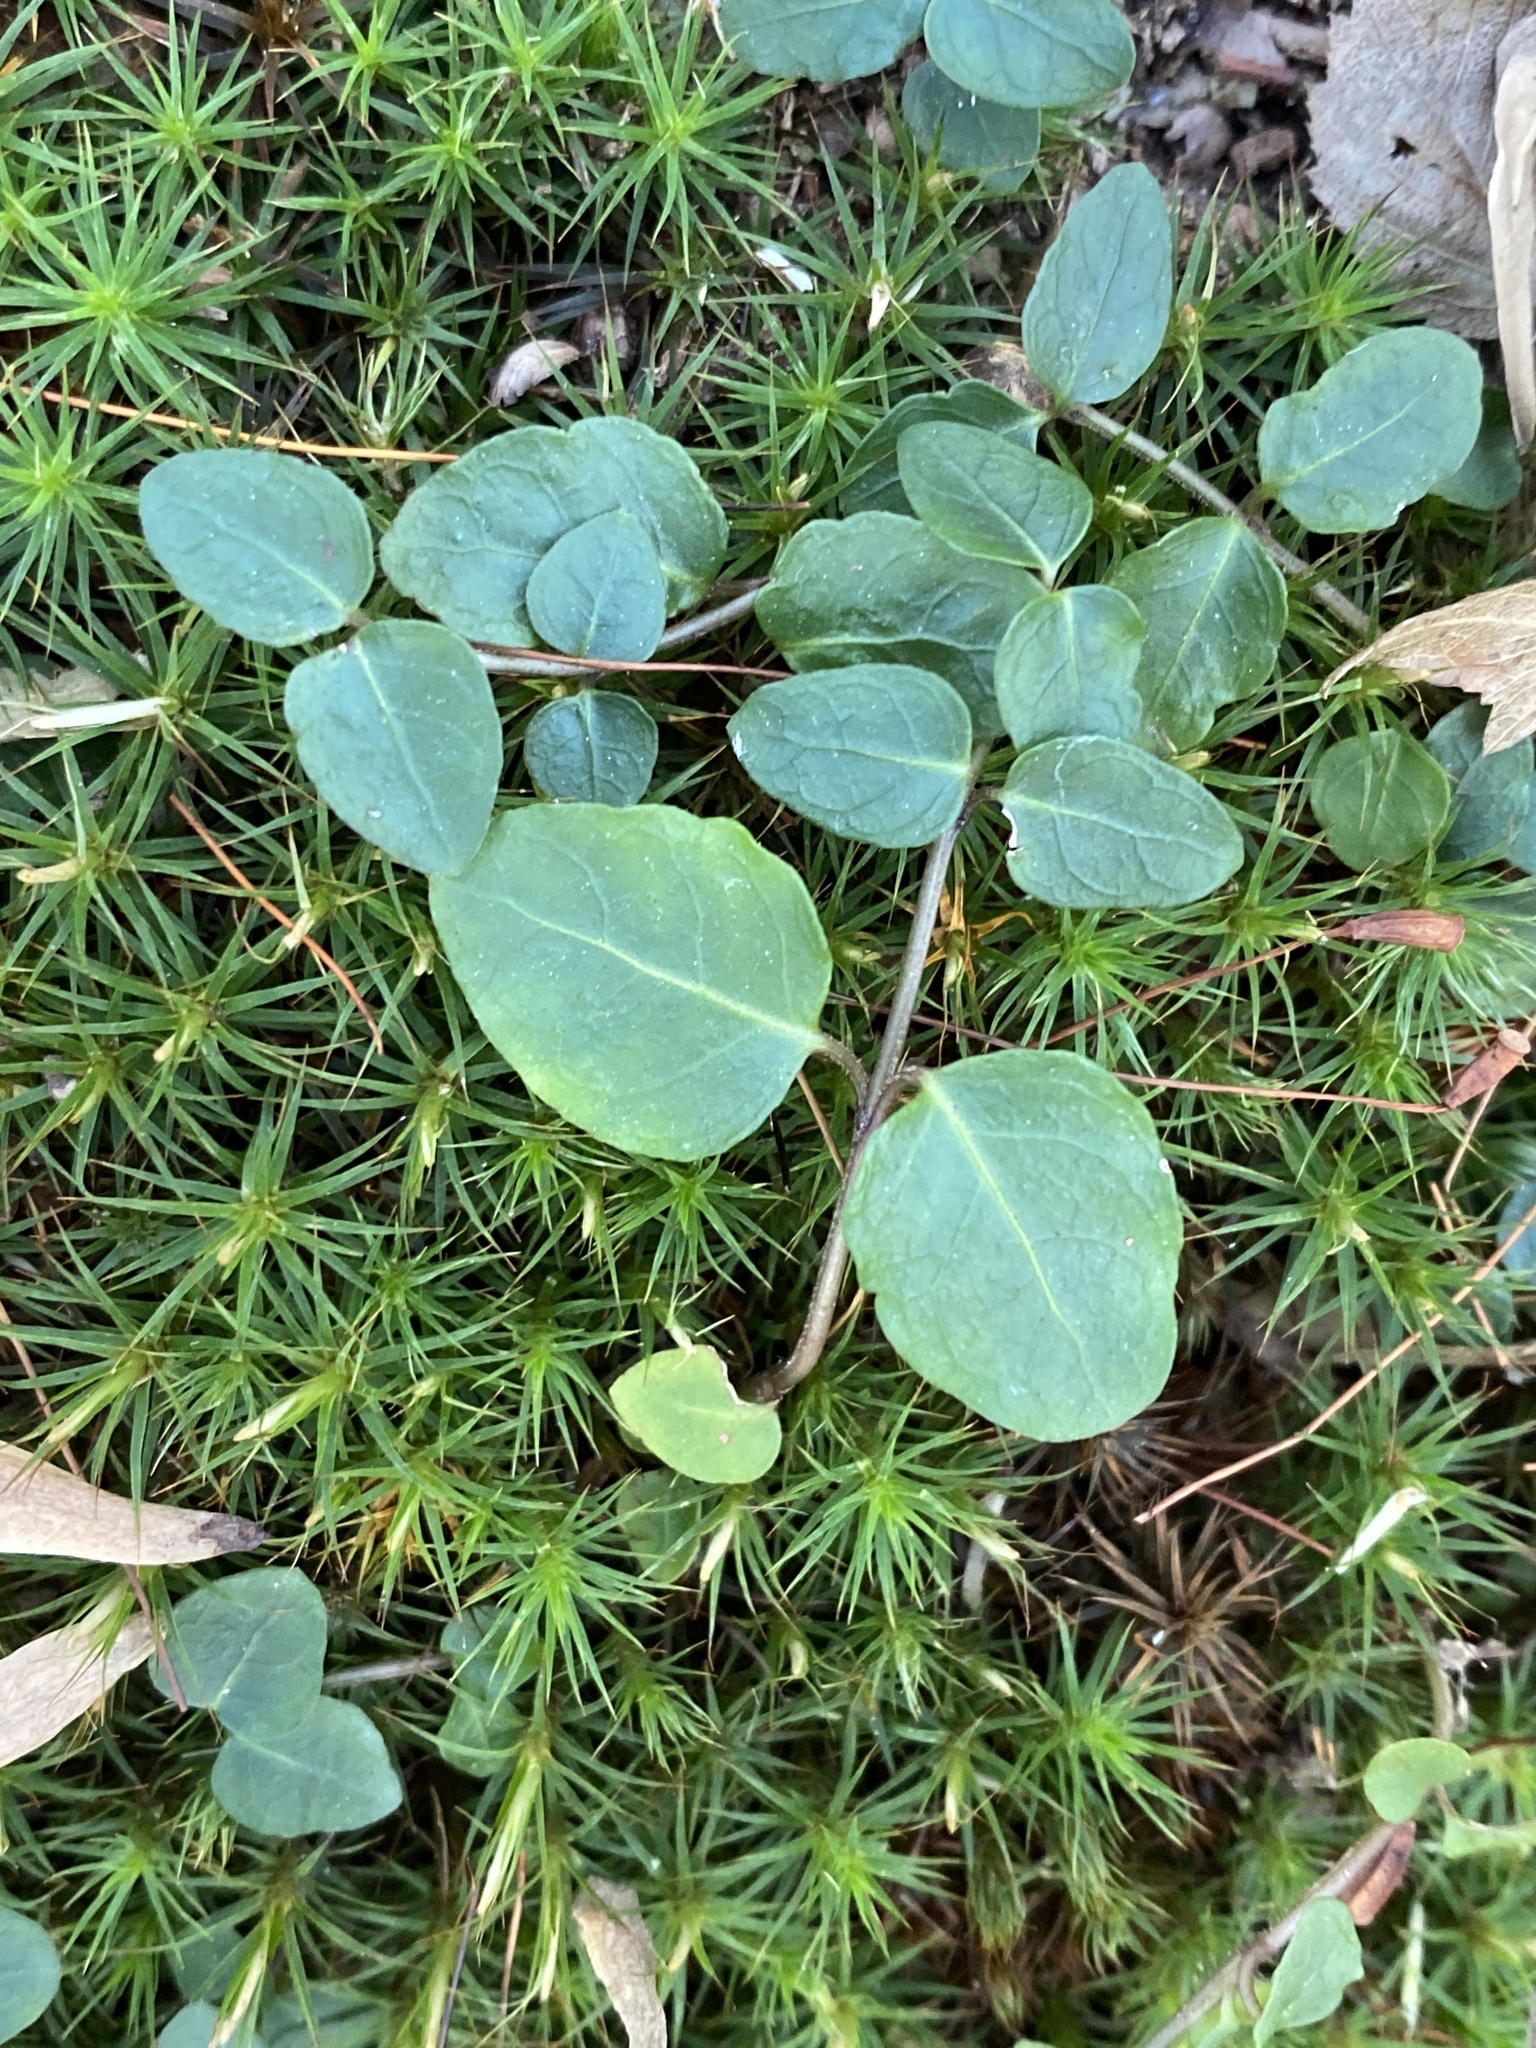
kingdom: Plantae
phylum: Tracheophyta
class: Magnoliopsida
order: Gentianales
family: Rubiaceae
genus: Mitchella
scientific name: Mitchella repens
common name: Partridge-berry
